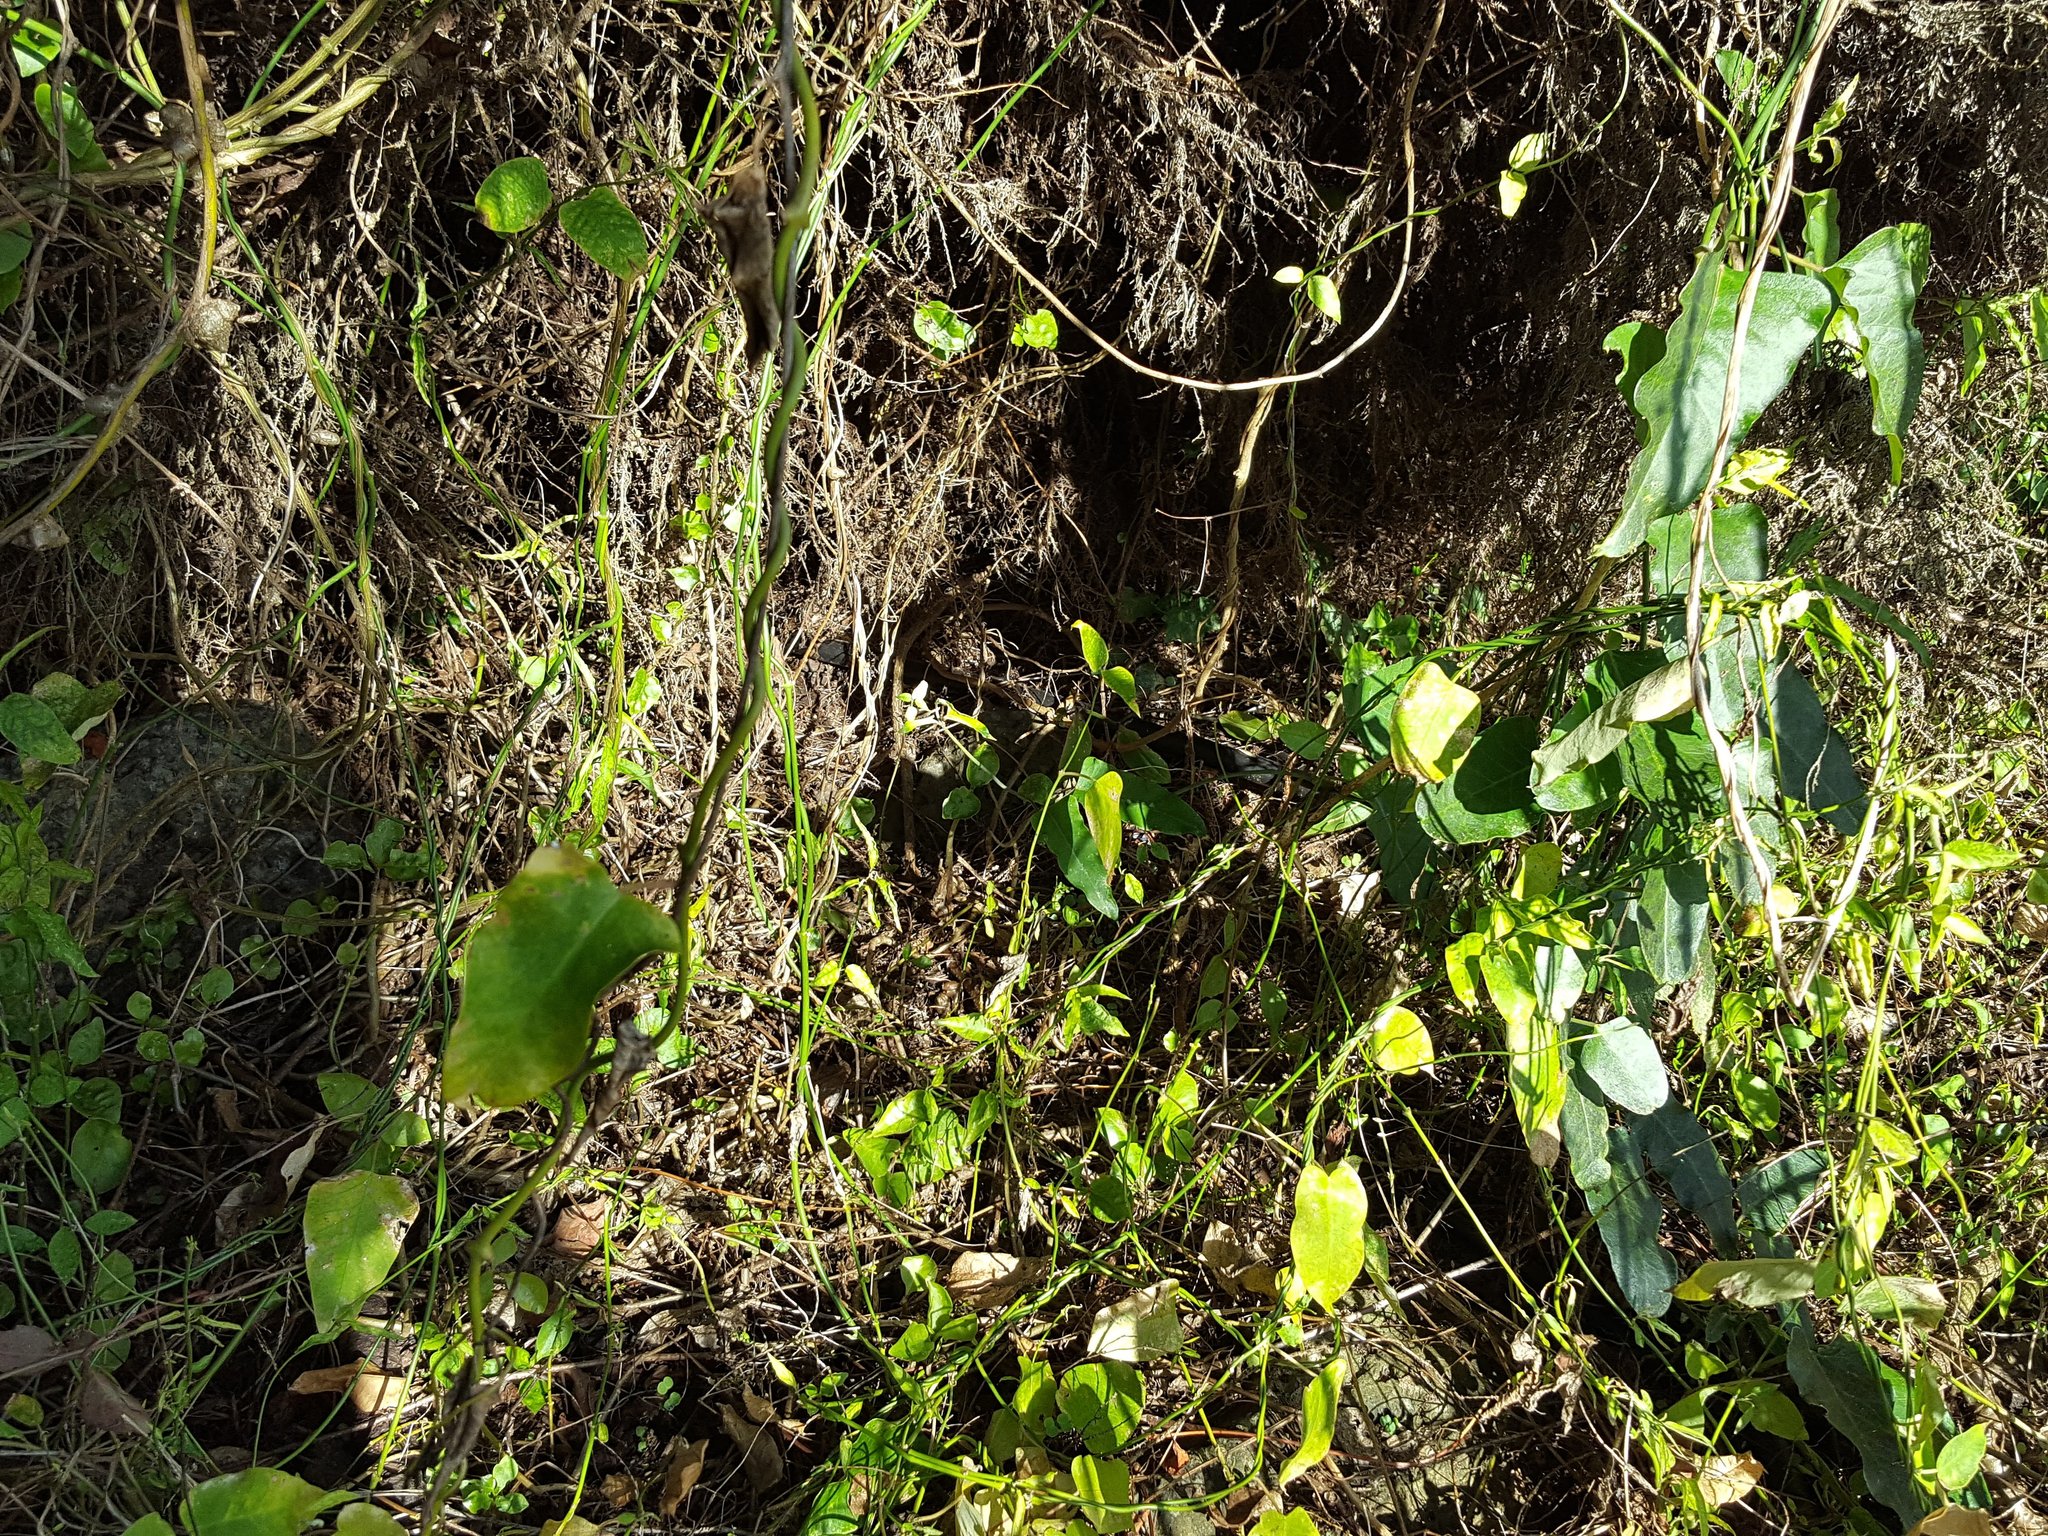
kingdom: Plantae
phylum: Tracheophyta
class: Magnoliopsida
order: Gentianales
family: Apocynaceae
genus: Araujia
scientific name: Araujia sericifera
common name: White bladderflower
